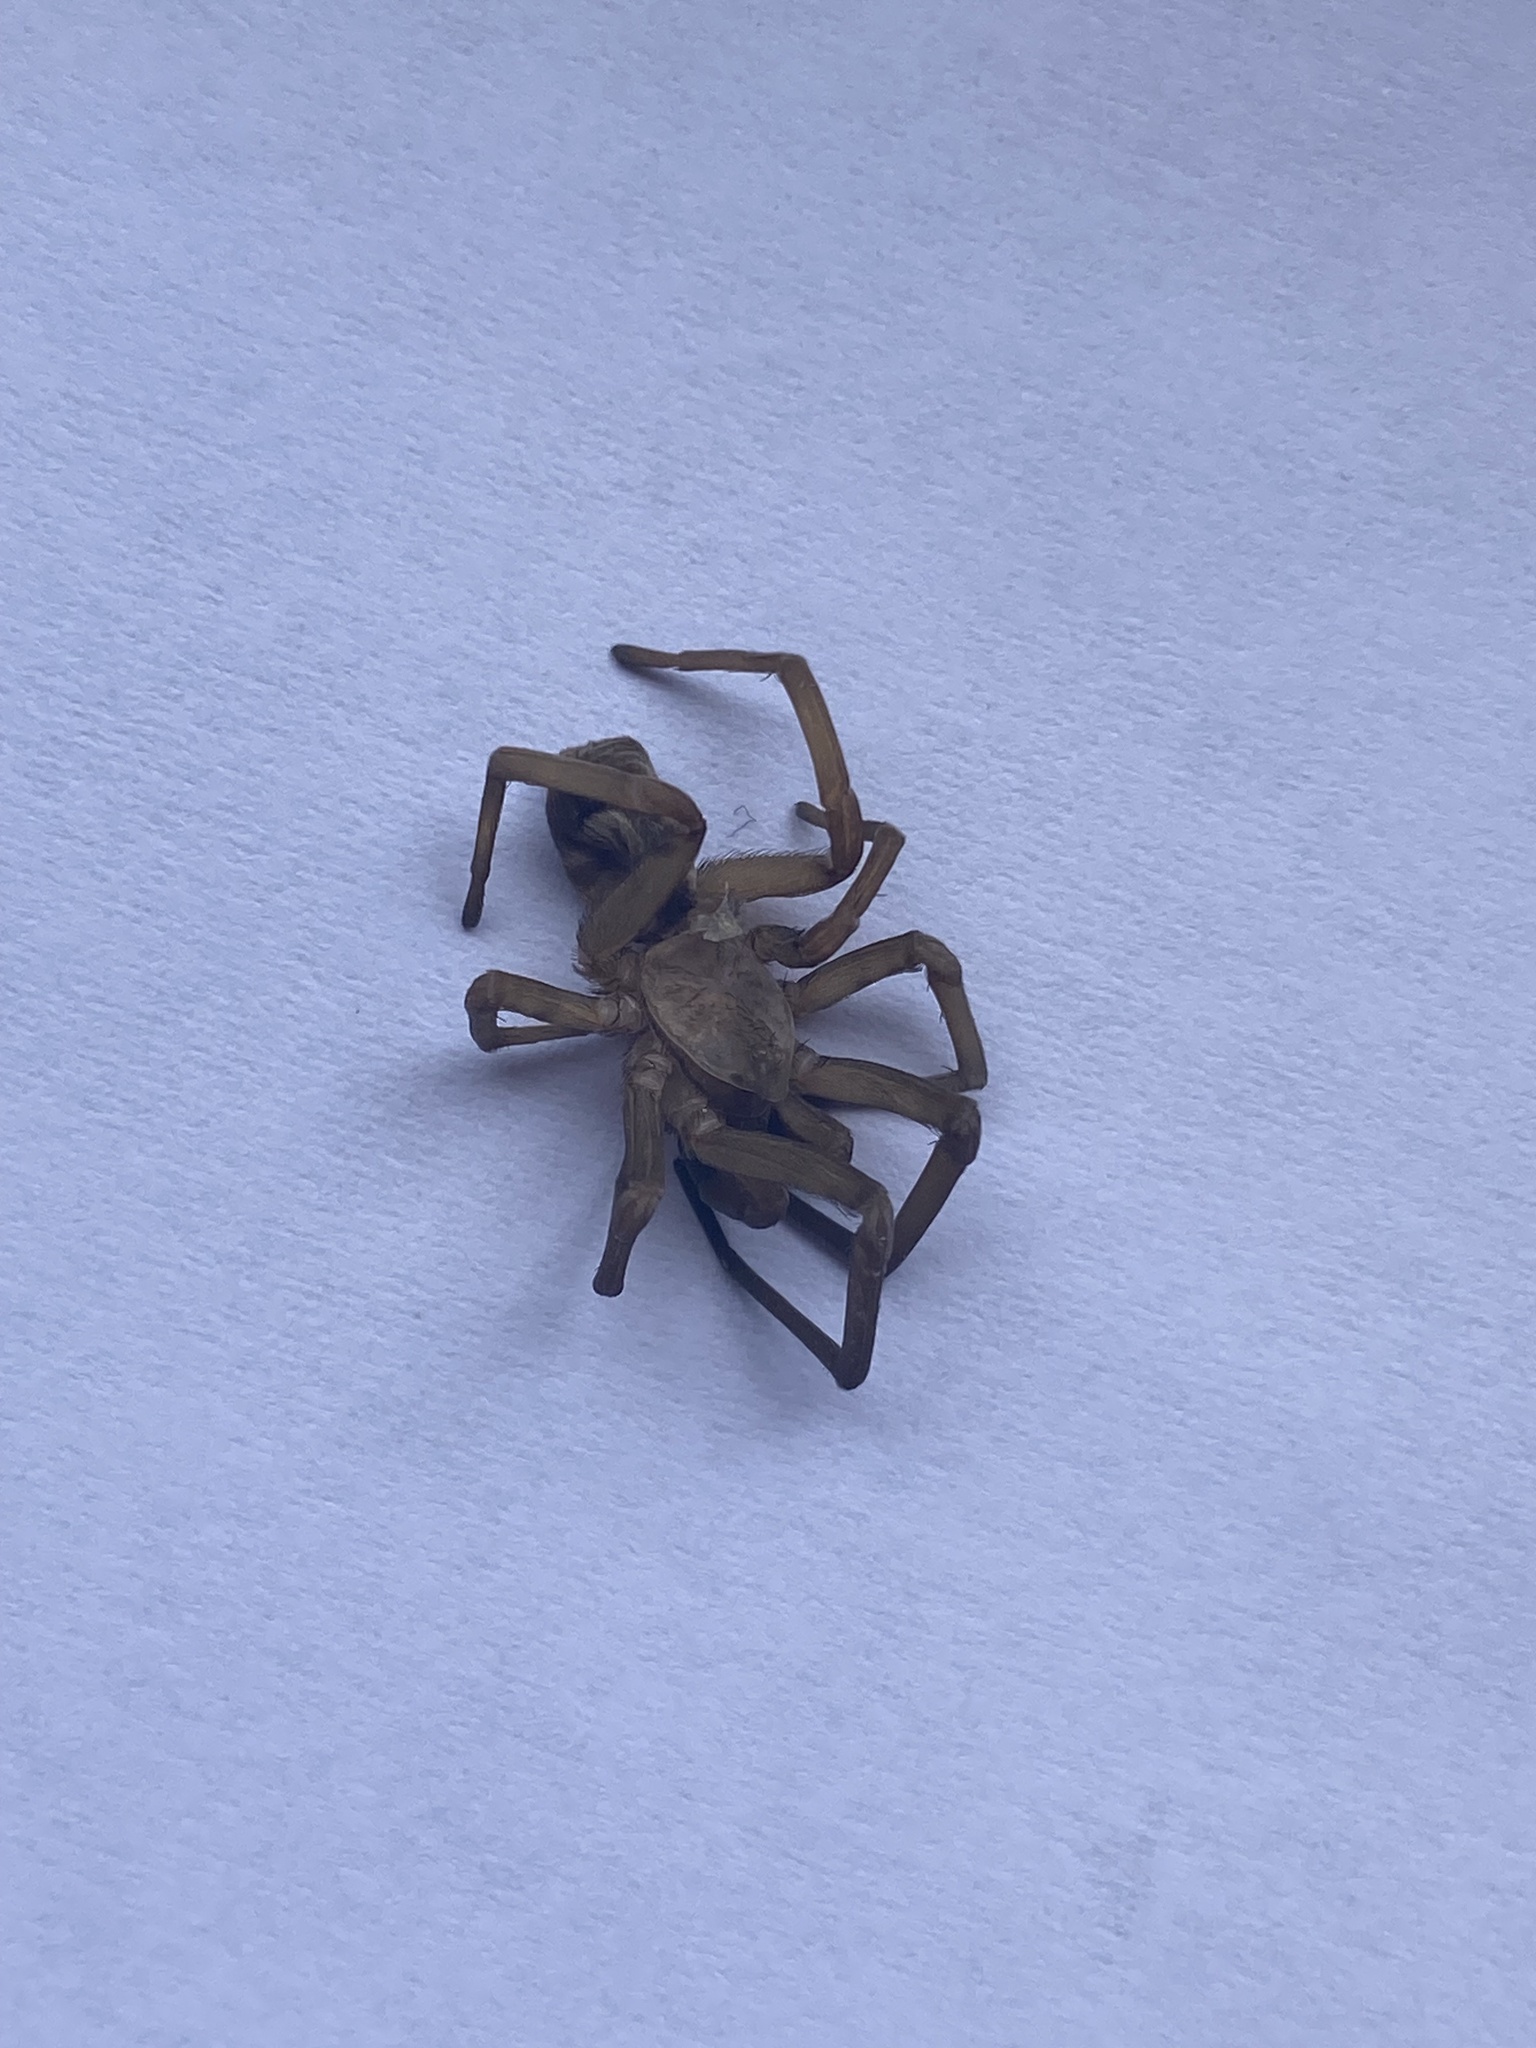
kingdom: Animalia
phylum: Arthropoda
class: Arachnida
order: Araneae
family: Filistatidae
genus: Filistata
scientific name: Filistata insidiatrix
